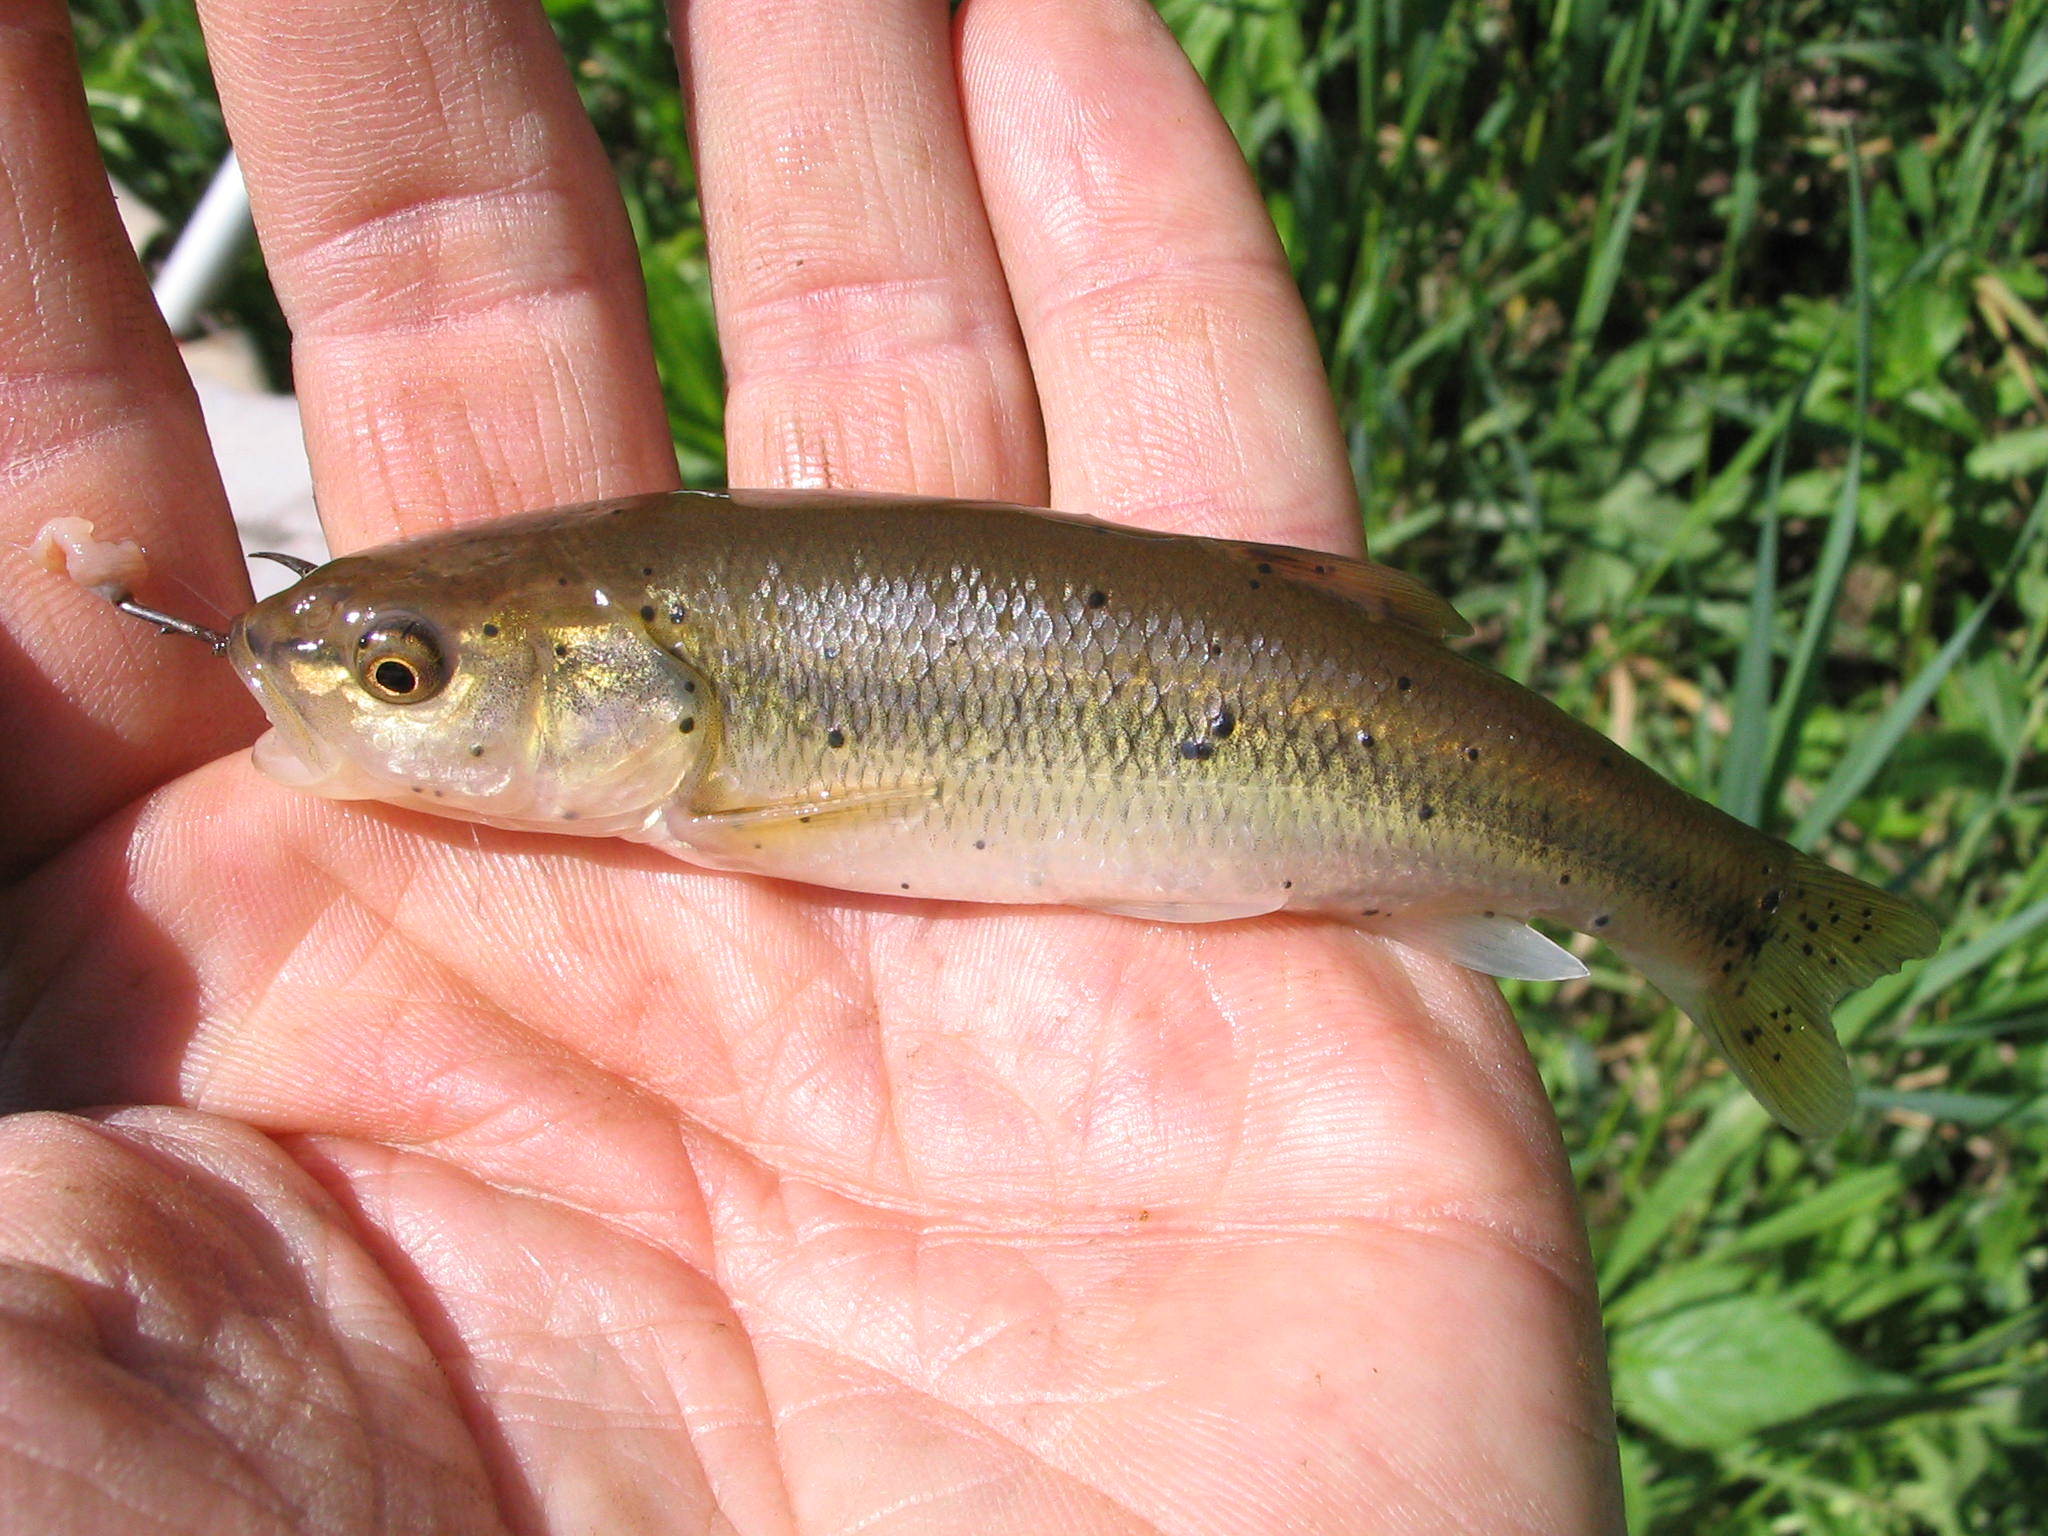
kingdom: Animalia
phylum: Chordata
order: Cypriniformes
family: Cyprinidae
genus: Semotilus
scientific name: Semotilus atromaculatus
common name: Creek chub
